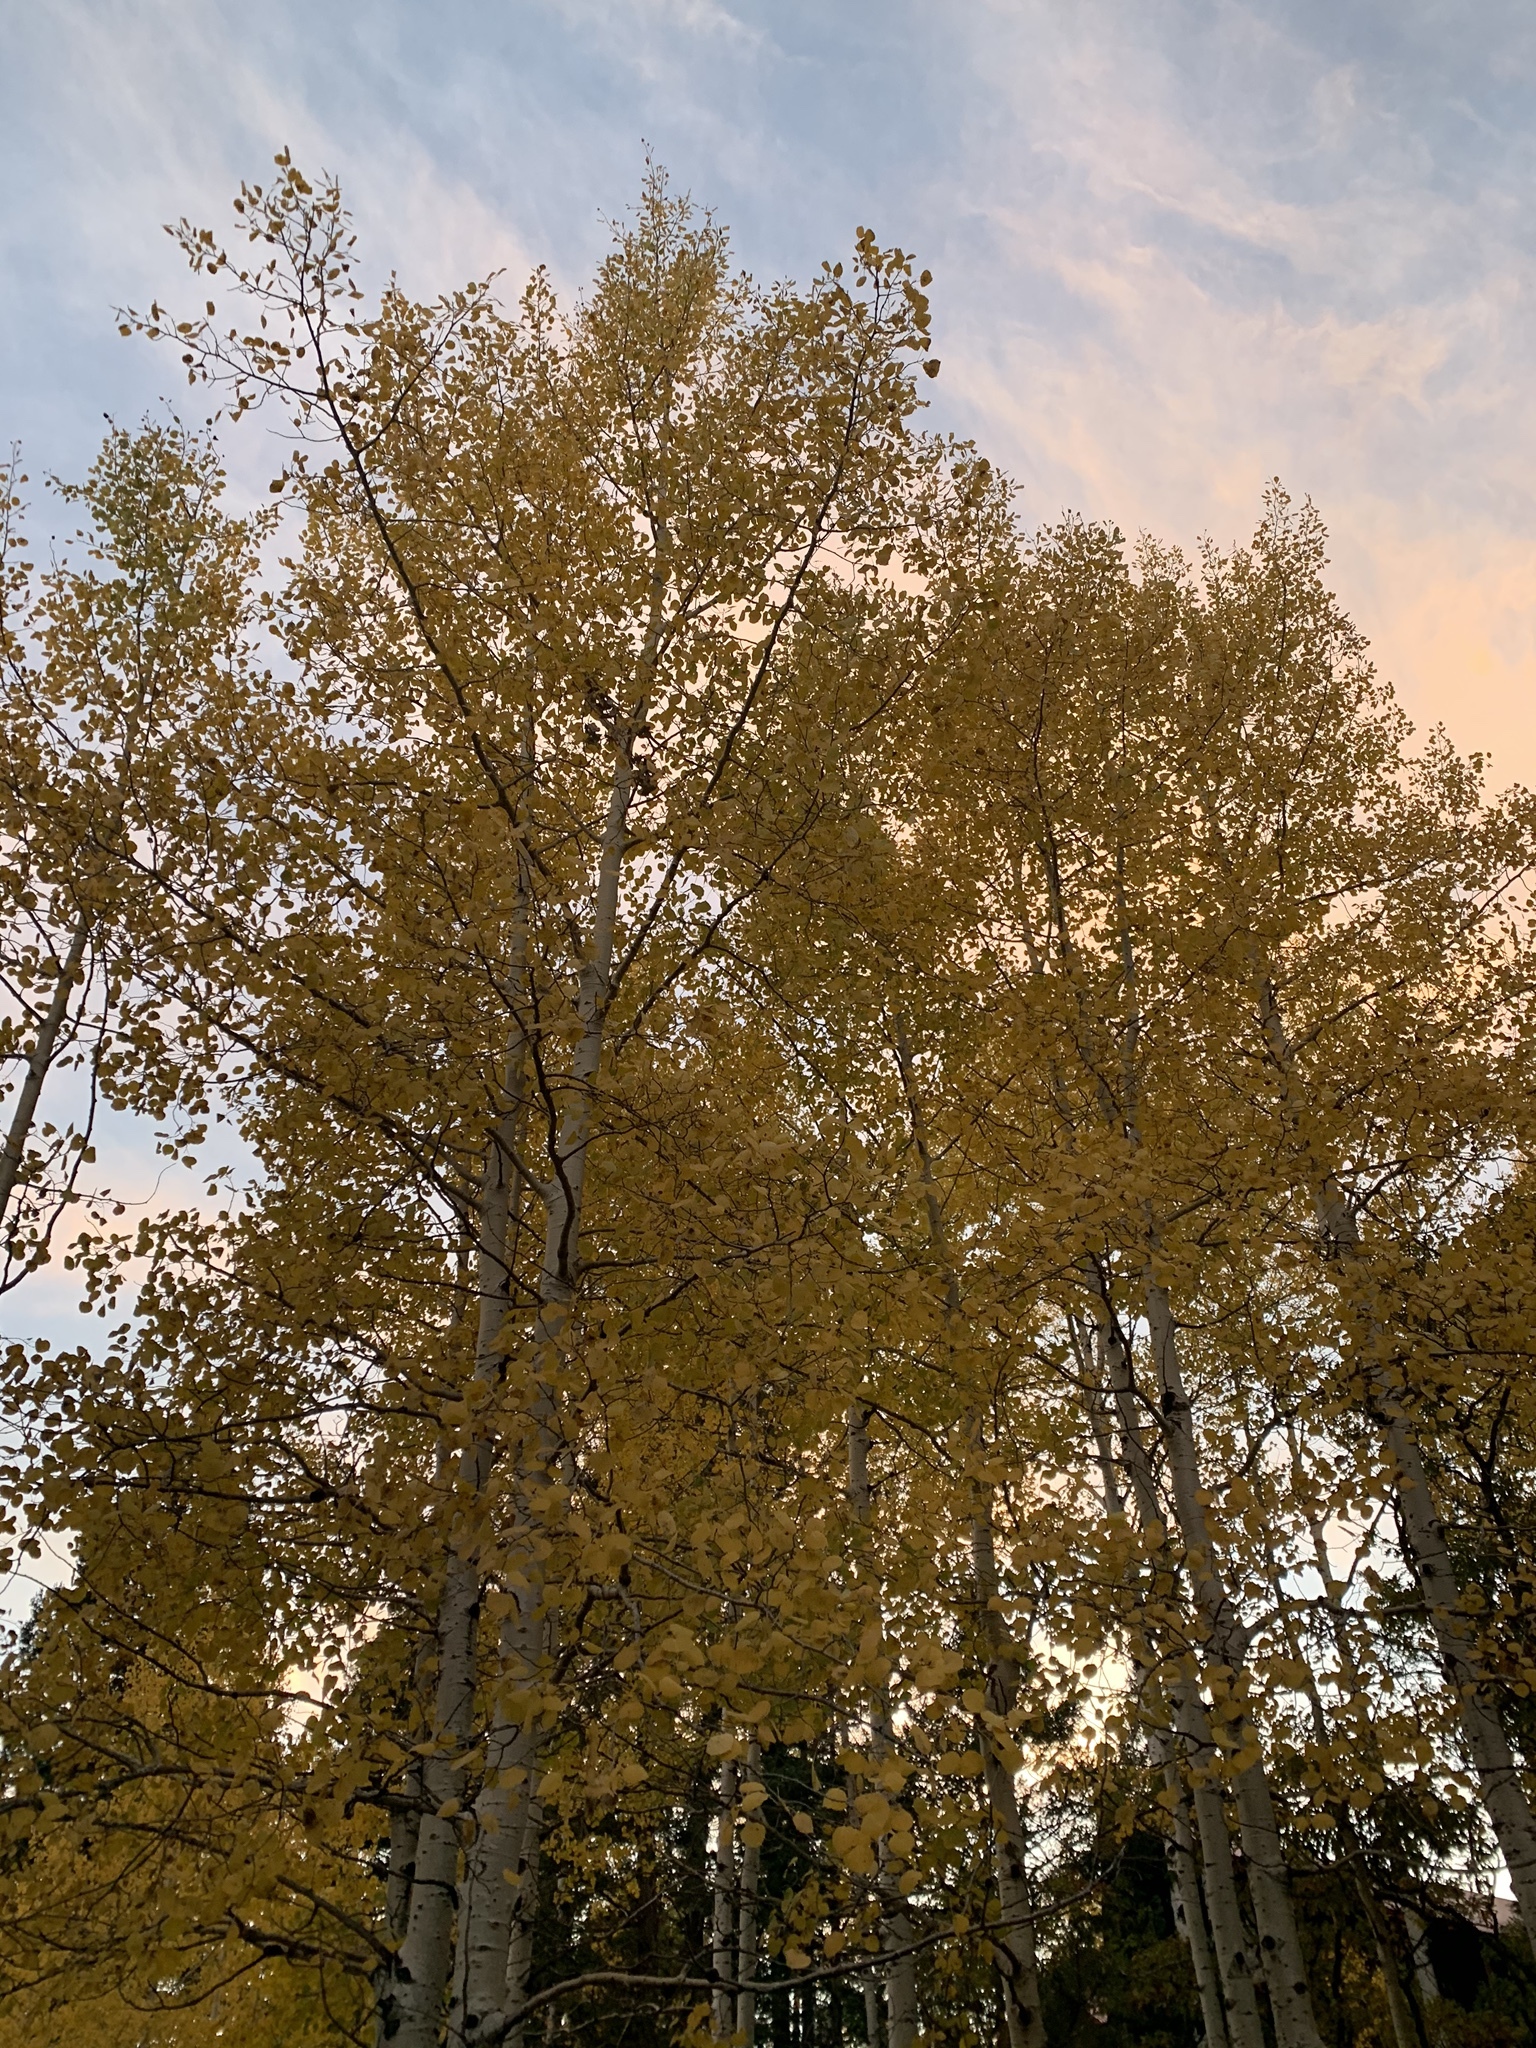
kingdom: Plantae
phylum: Tracheophyta
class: Magnoliopsida
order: Malpighiales
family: Salicaceae
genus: Populus
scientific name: Populus tremuloides
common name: Quaking aspen
